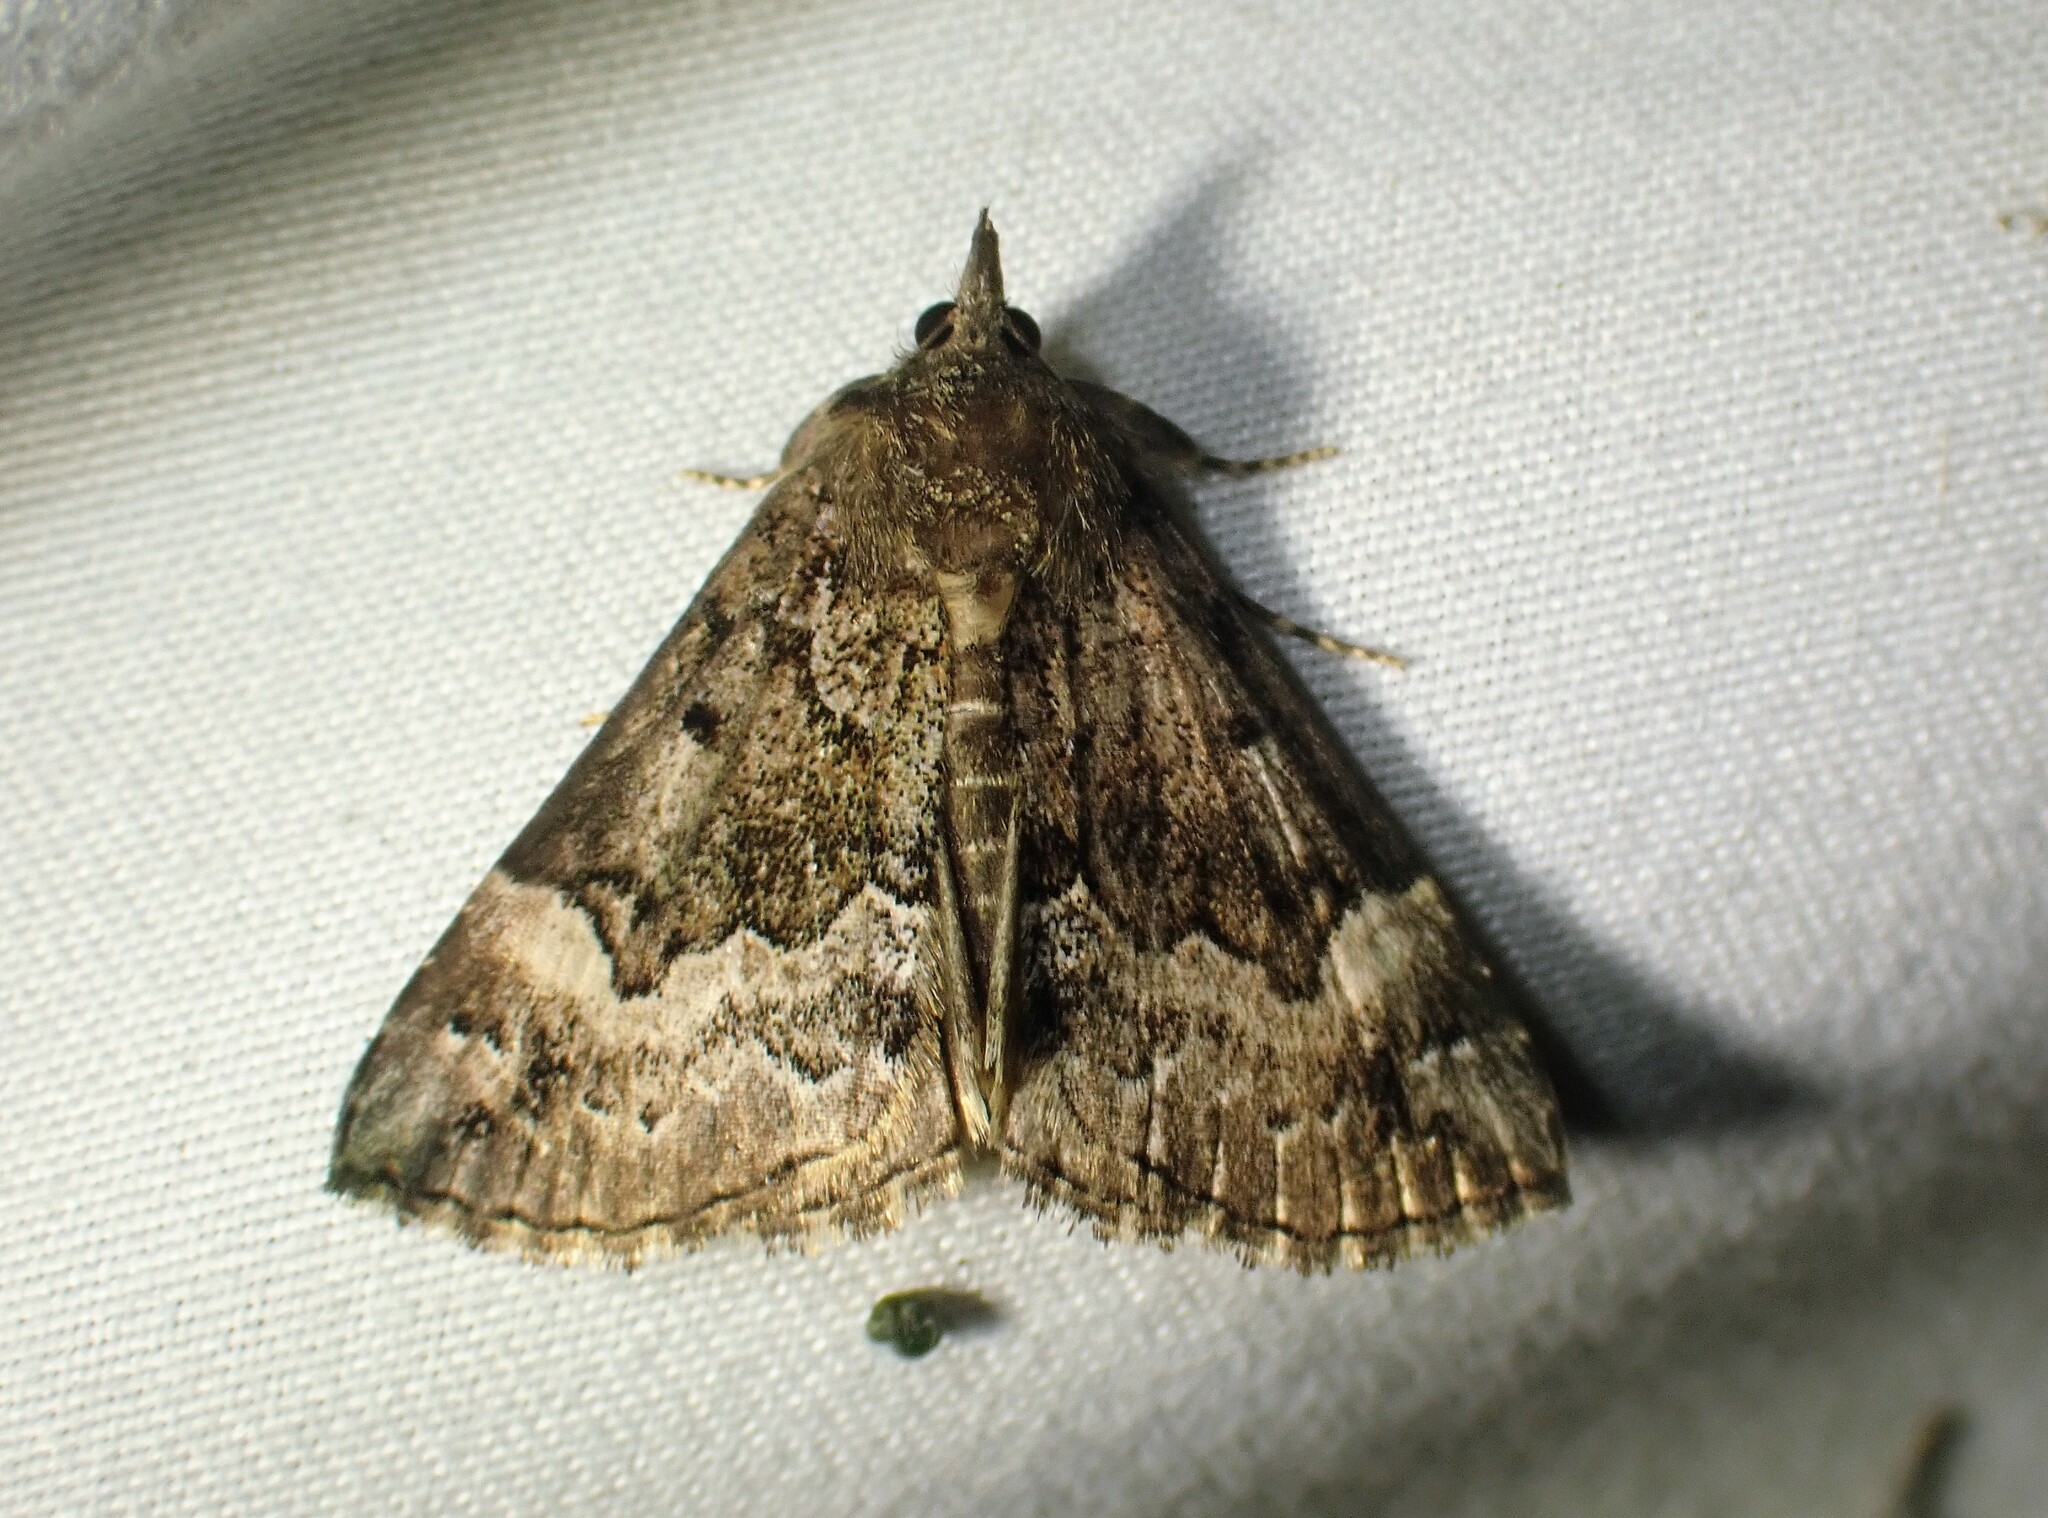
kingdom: Animalia
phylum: Arthropoda
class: Insecta
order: Lepidoptera
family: Erebidae
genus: Hypena
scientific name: Hypena palparia
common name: Mottled bomolocha moth
